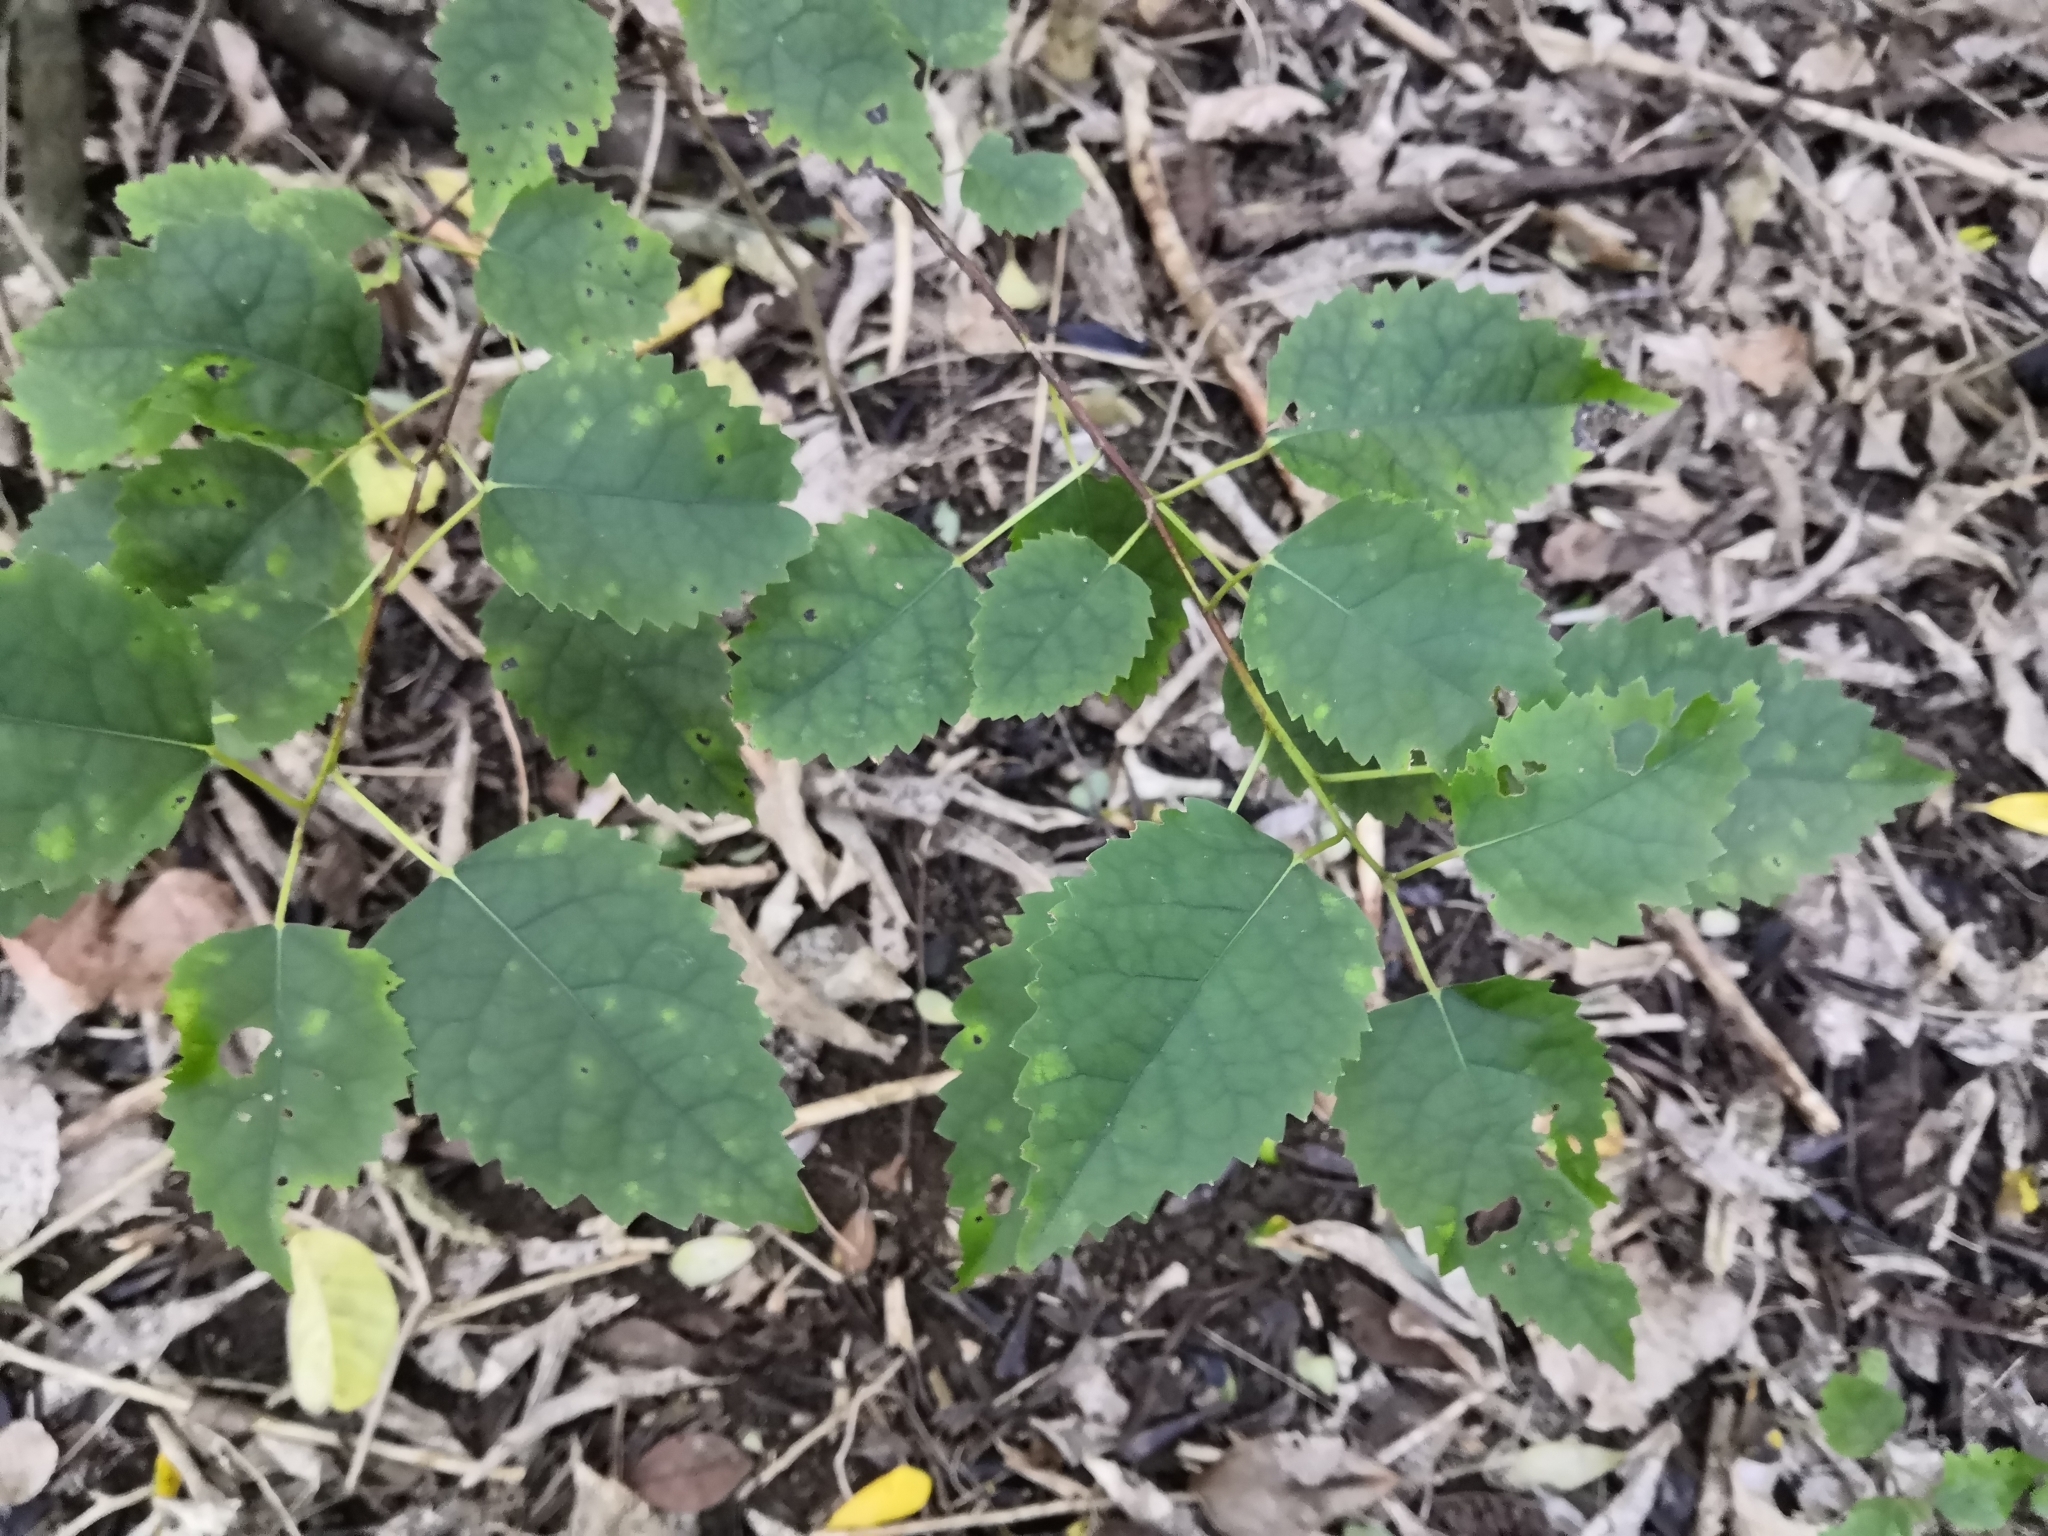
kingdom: Plantae
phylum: Tracheophyta
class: Magnoliopsida
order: Malvales
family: Malvaceae
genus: Hoheria
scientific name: Hoheria populnea
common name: Lacebark
